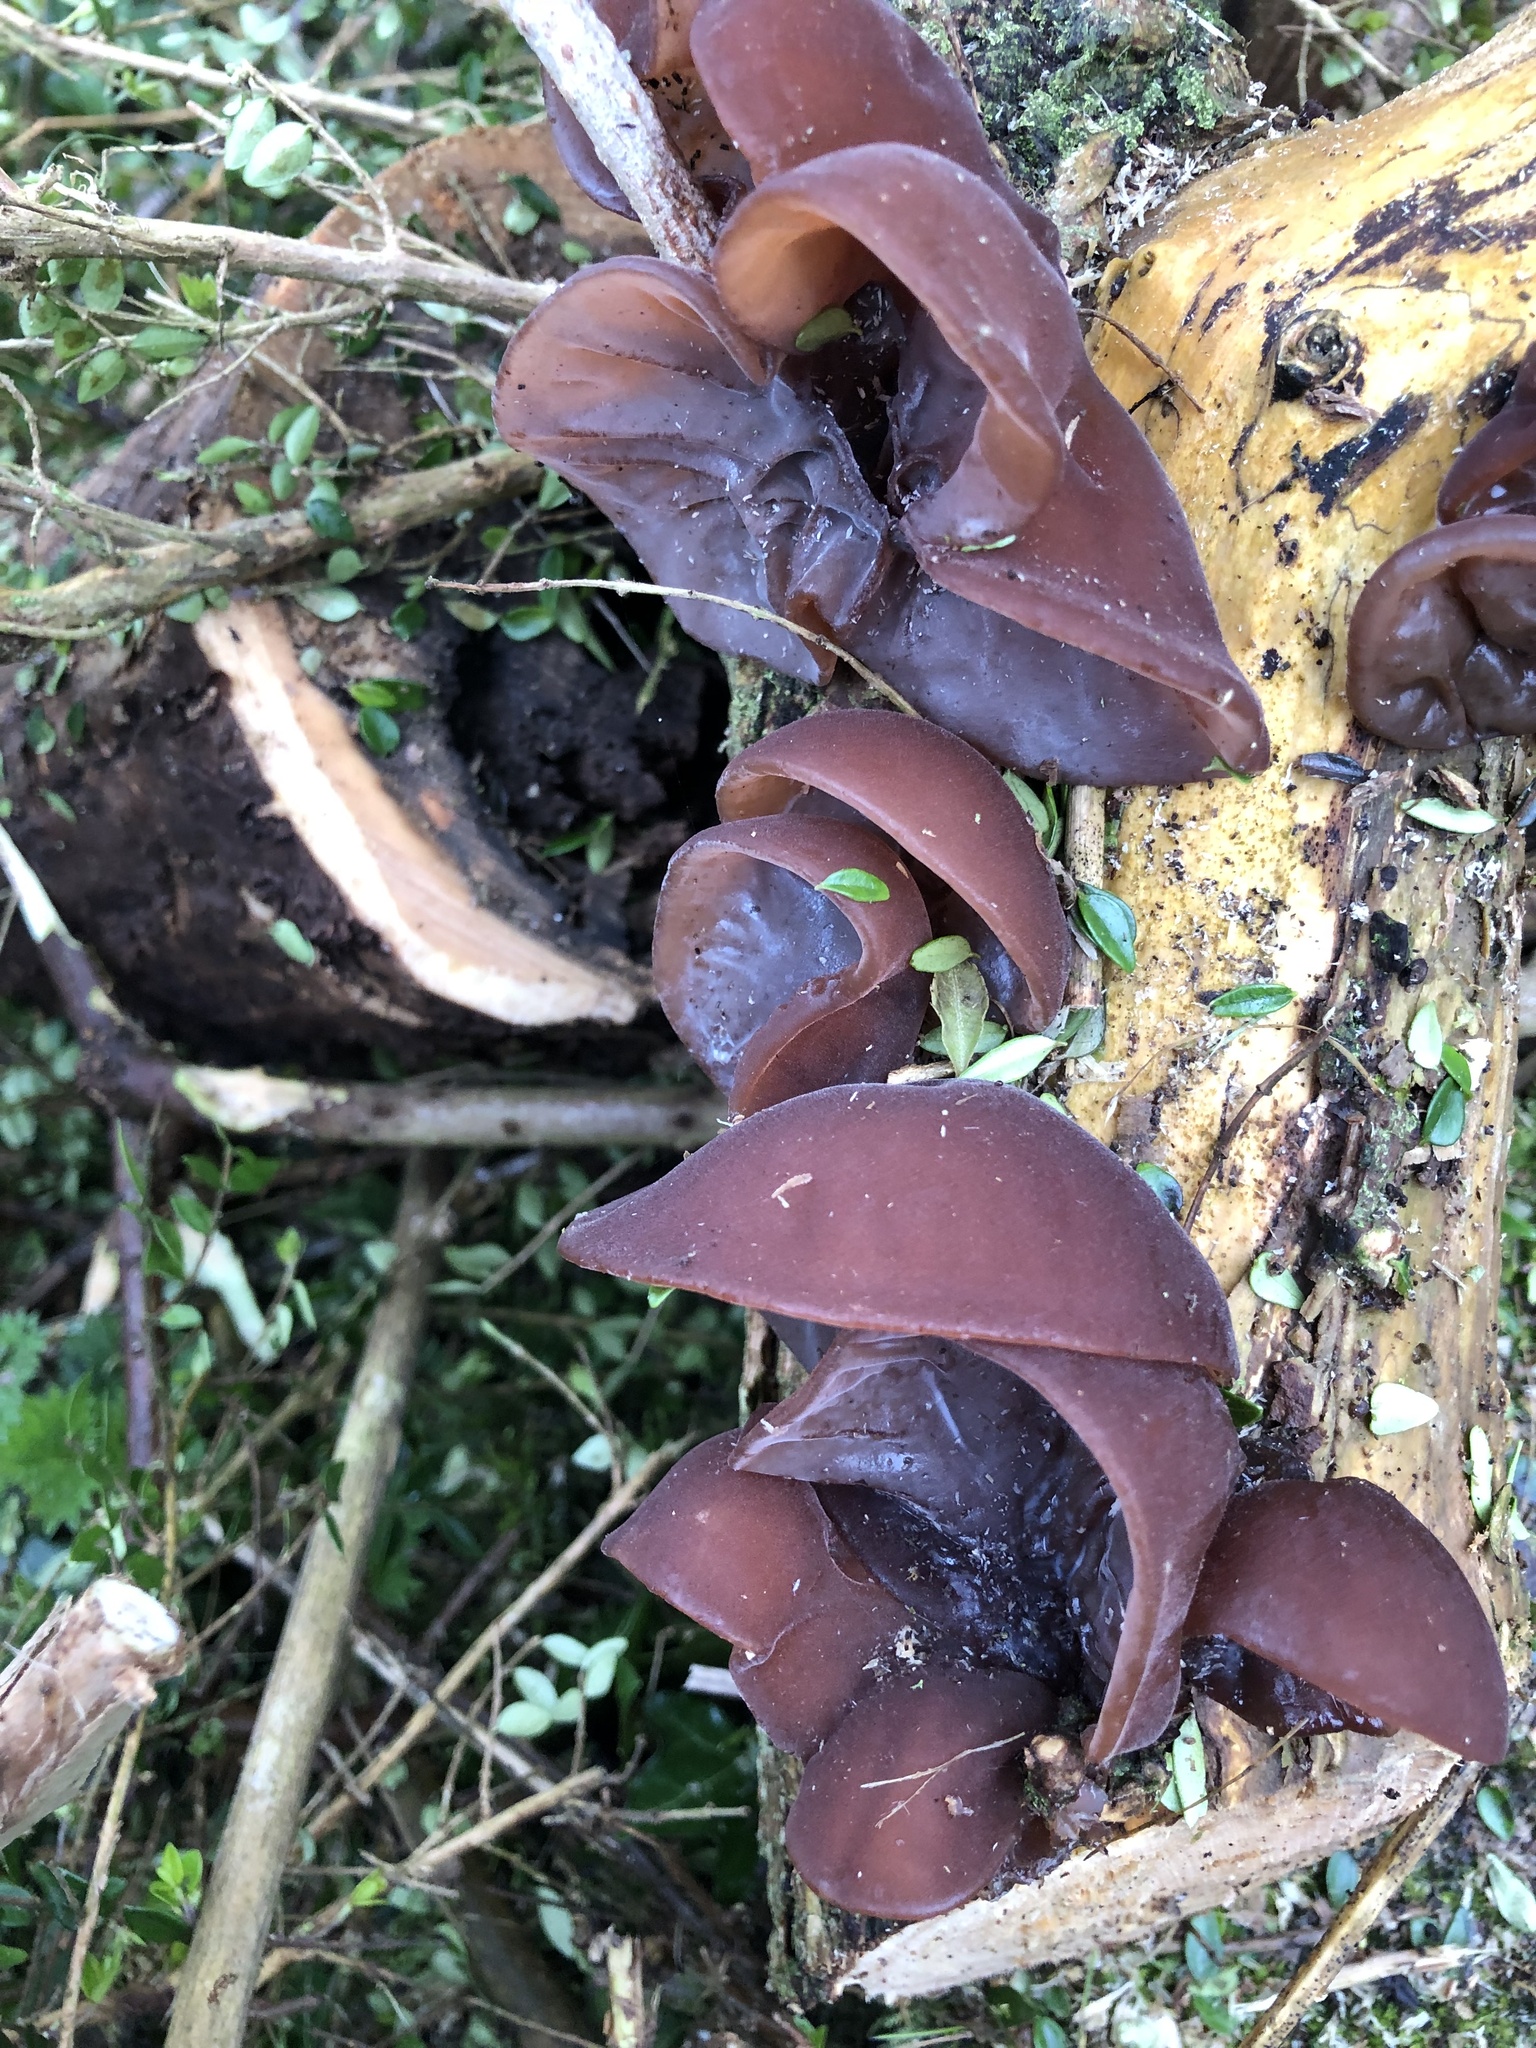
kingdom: Fungi
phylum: Basidiomycota
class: Agaricomycetes
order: Auriculariales
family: Auriculariaceae
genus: Auricularia
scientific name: Auricularia auricula-judae
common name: Jelly ear
